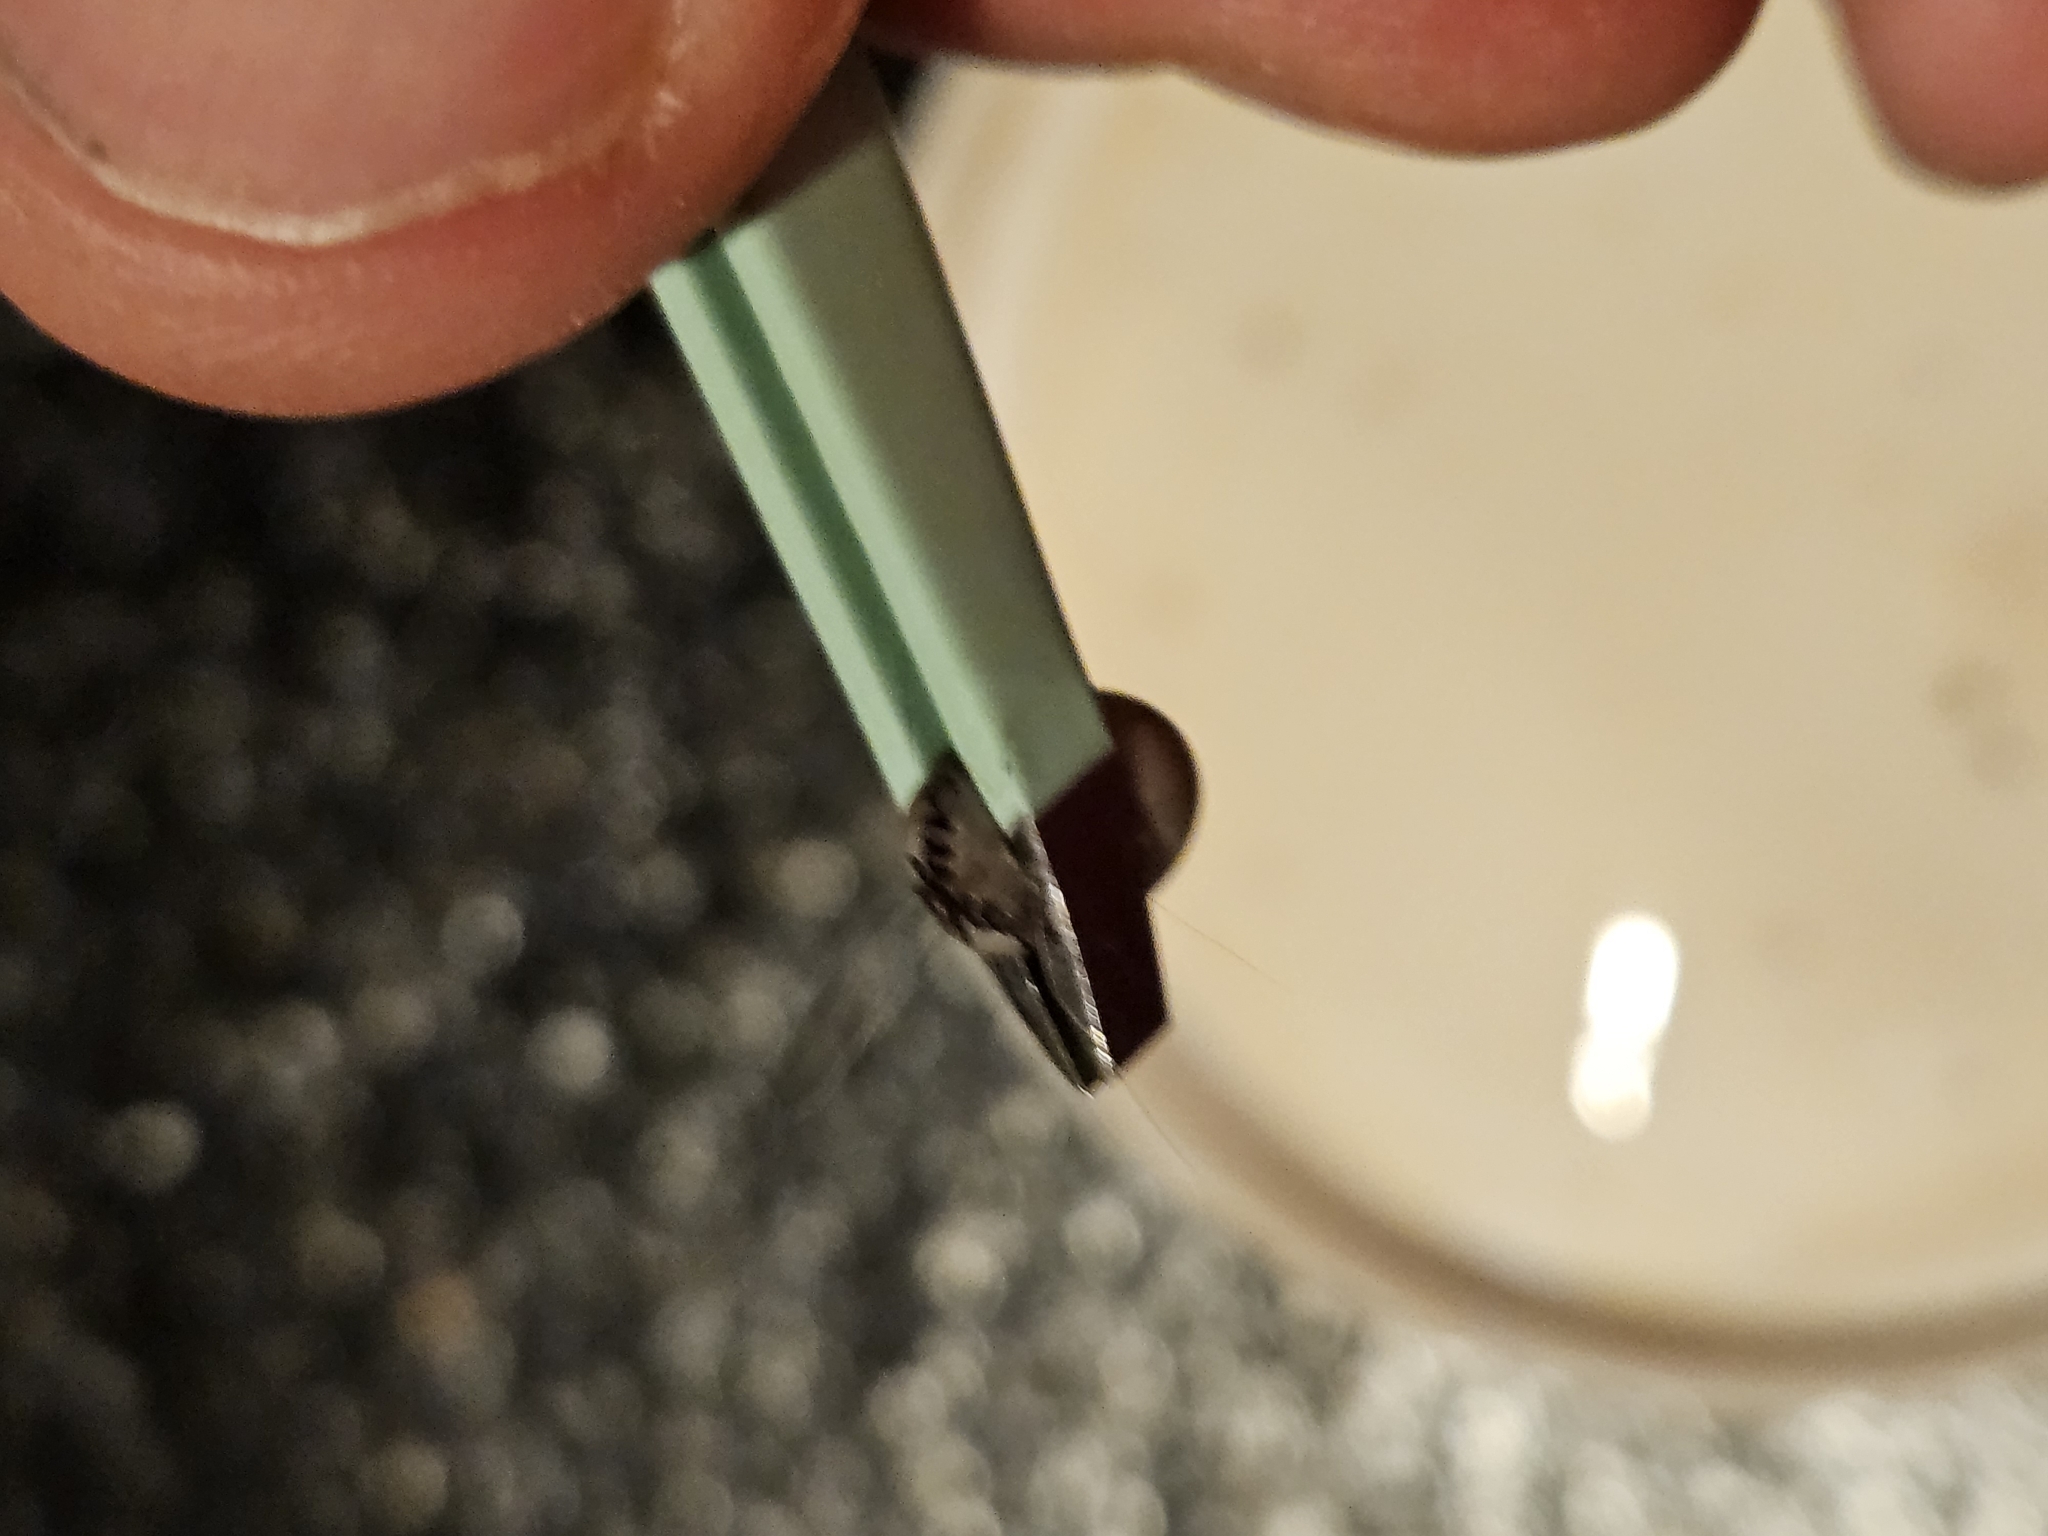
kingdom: Animalia
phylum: Arthropoda
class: Arachnida
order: Ixodida
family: Ixodidae
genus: Ixodes
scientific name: Ixodes scapularis
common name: Black legged tick
